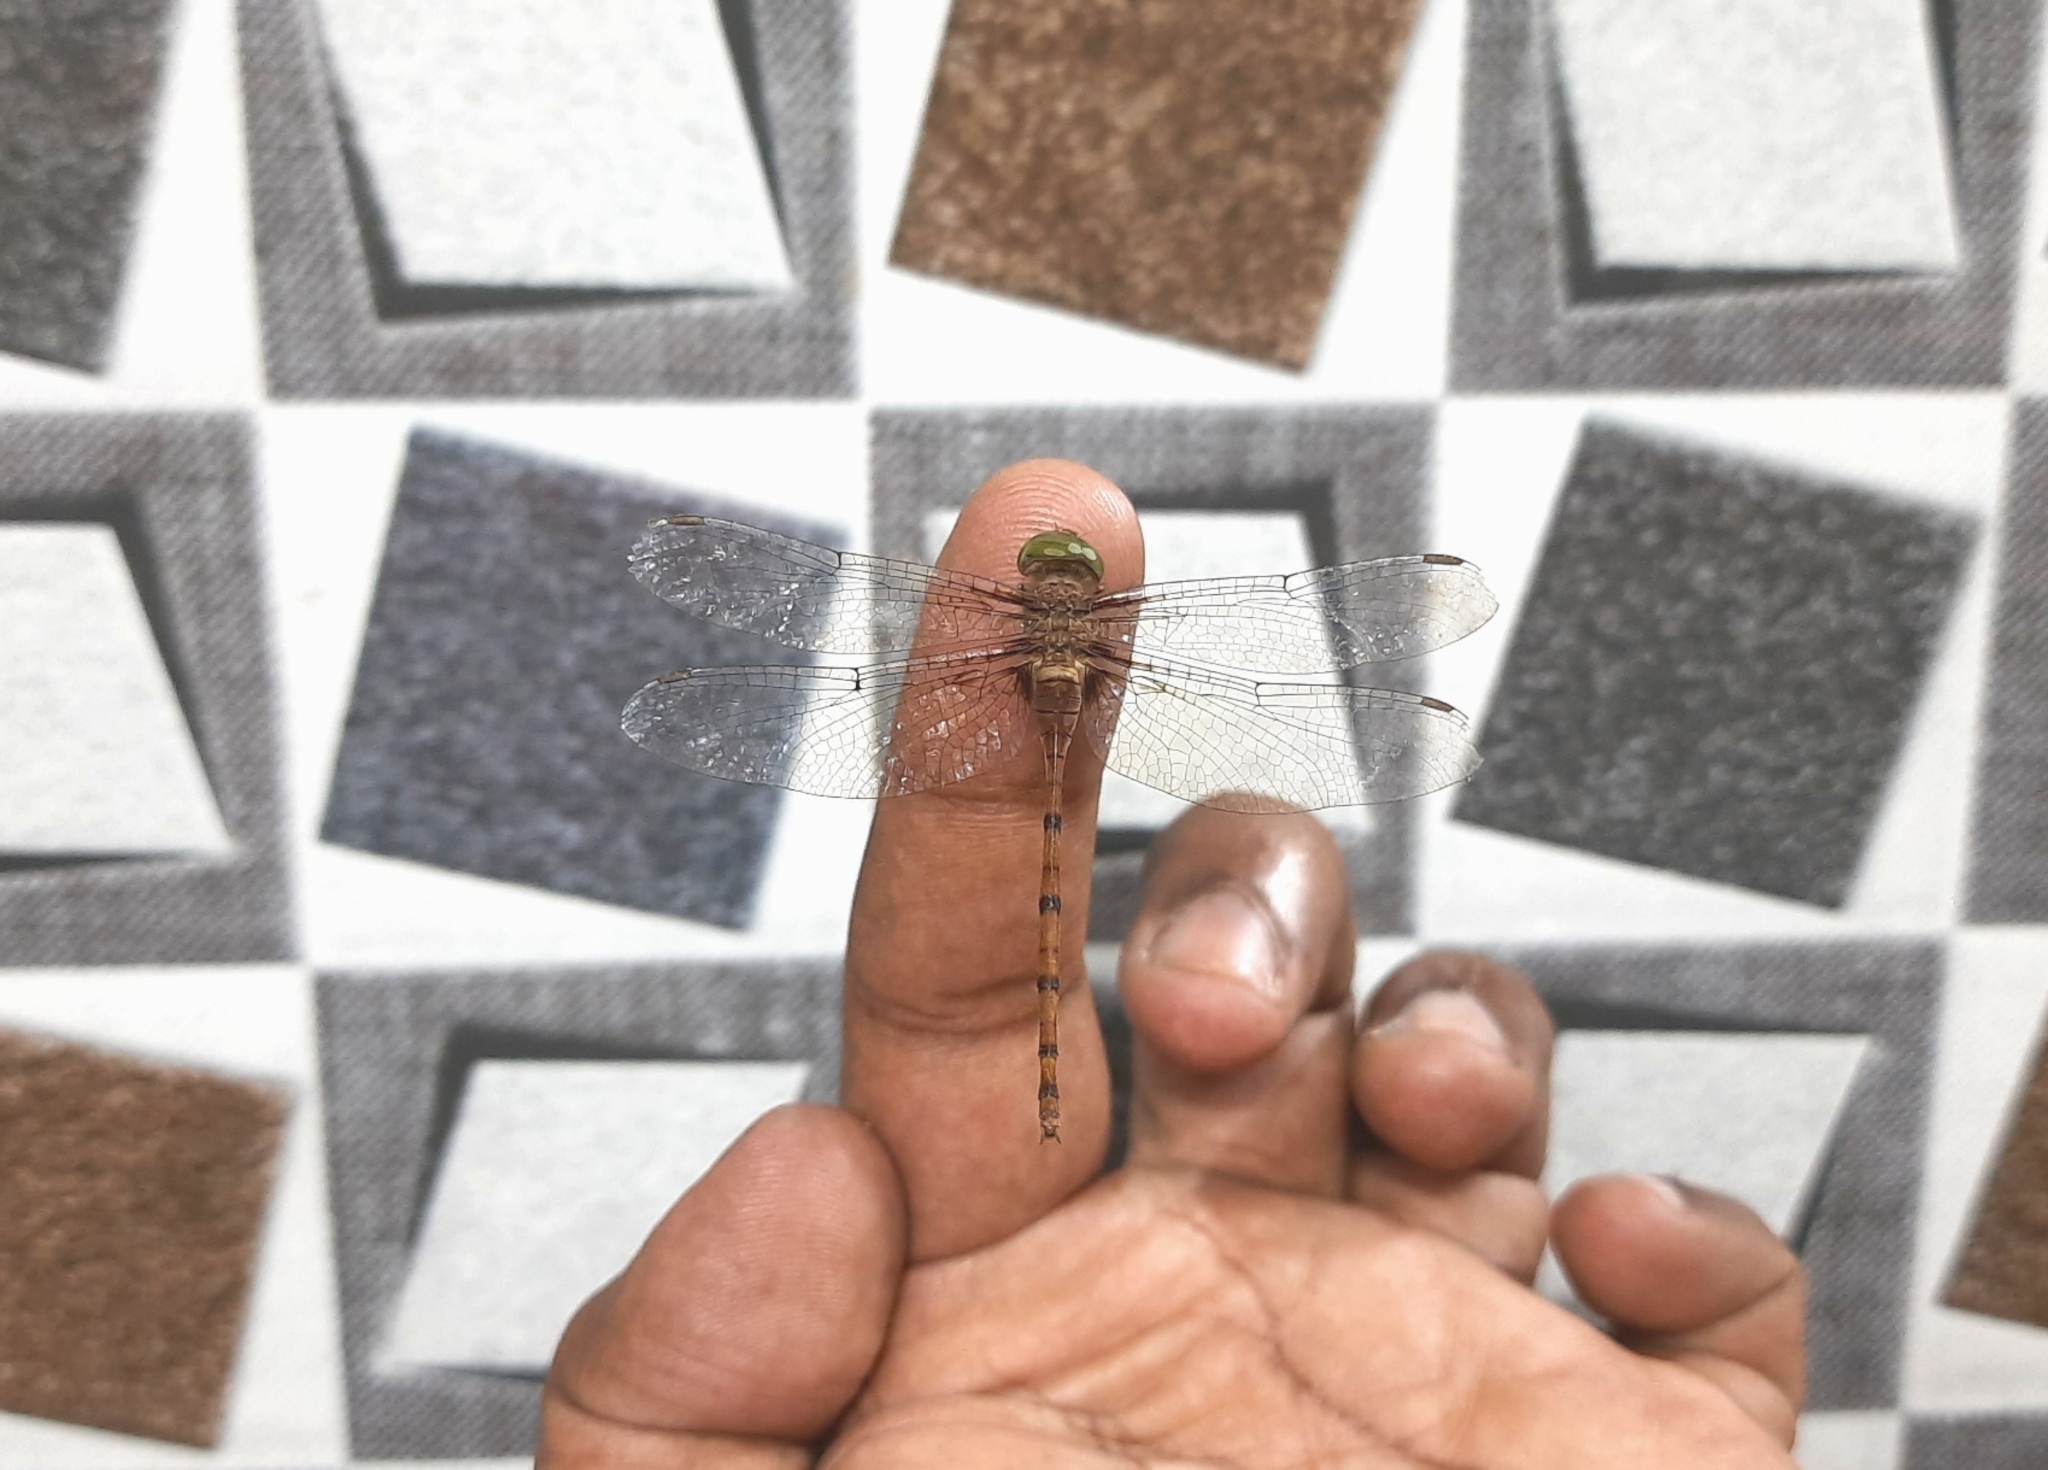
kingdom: Animalia
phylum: Arthropoda
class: Insecta
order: Odonata
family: Libellulidae
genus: Zyxomma
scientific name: Zyxomma petiolatum
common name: Dingy dusk-darter
